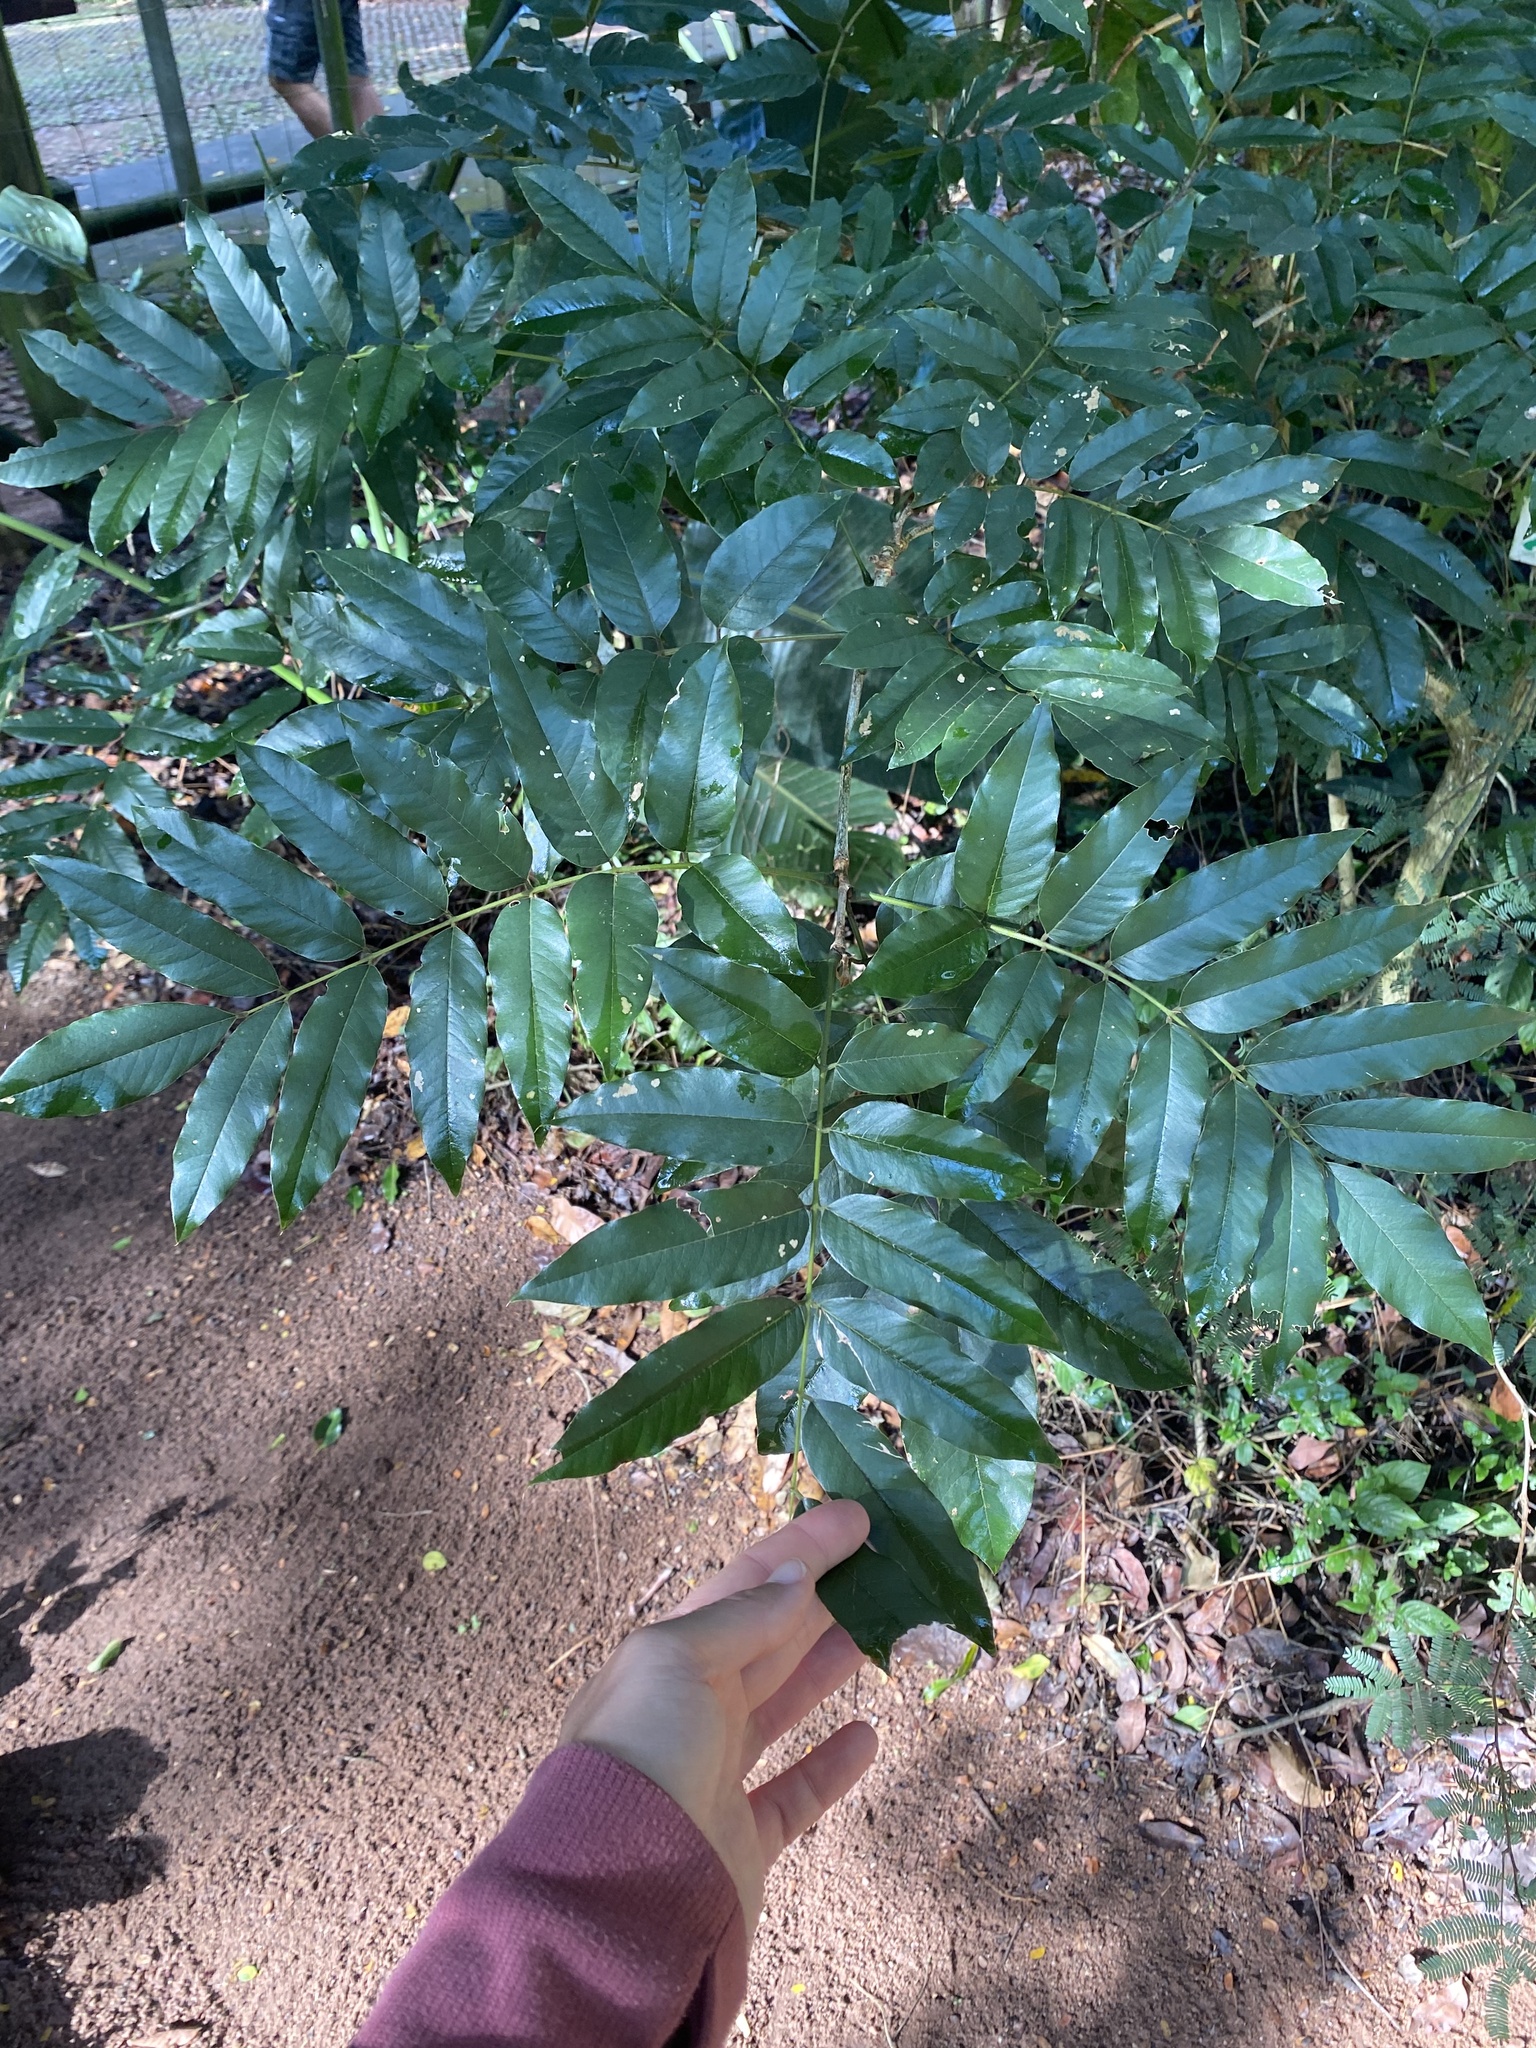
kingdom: Plantae
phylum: Tracheophyta
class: Magnoliopsida
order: Fabales
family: Fabaceae
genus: Millettia
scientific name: Millettia grandis
